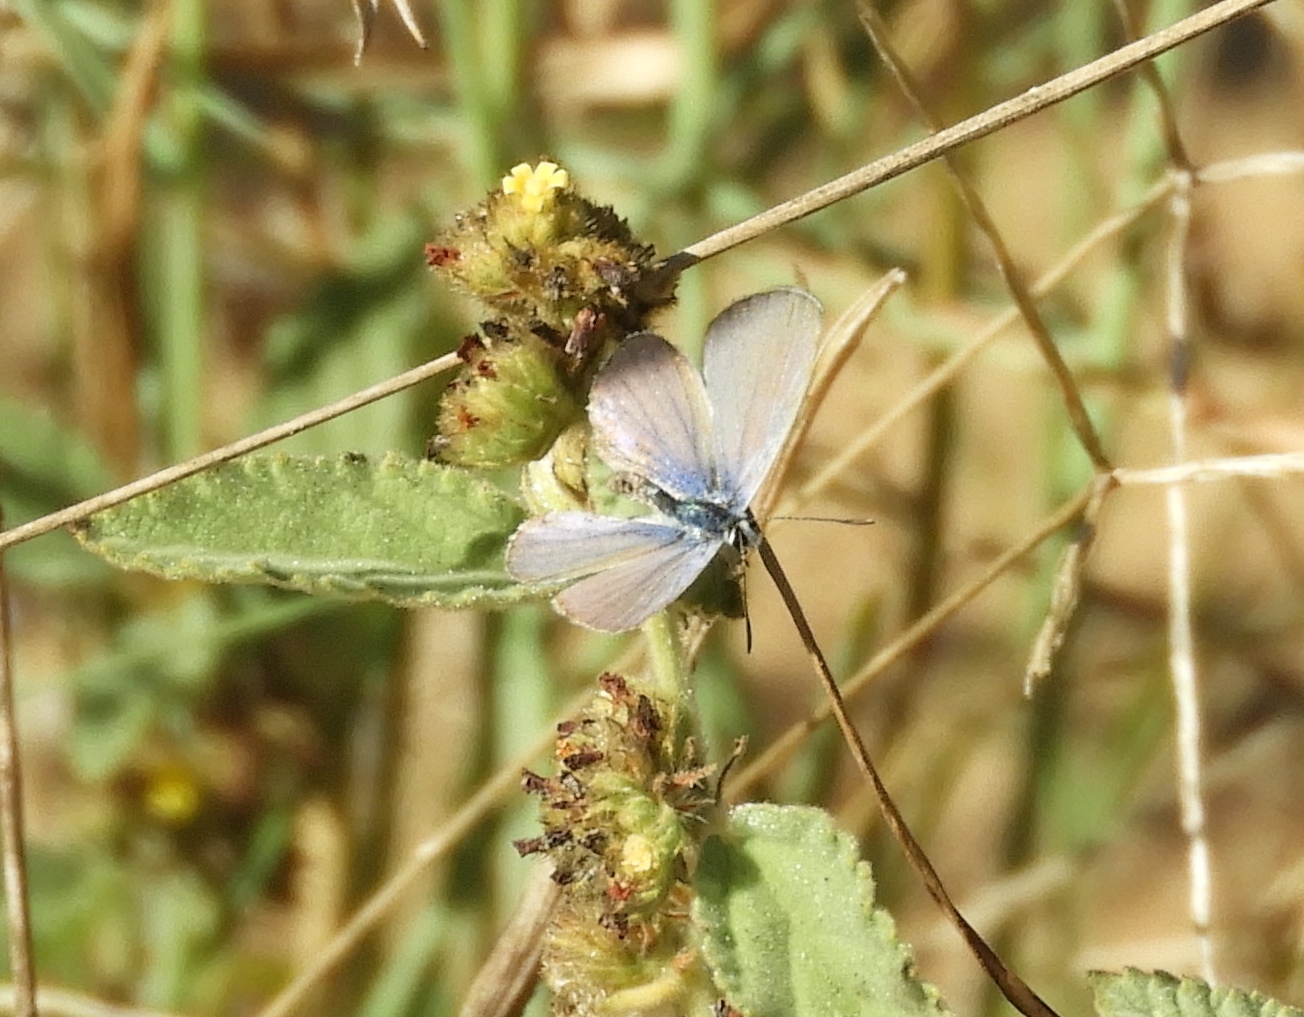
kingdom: Animalia
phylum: Arthropoda
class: Insecta
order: Lepidoptera
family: Lycaenidae
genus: Echinargus
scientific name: Echinargus isola
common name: Reakirt's blue
